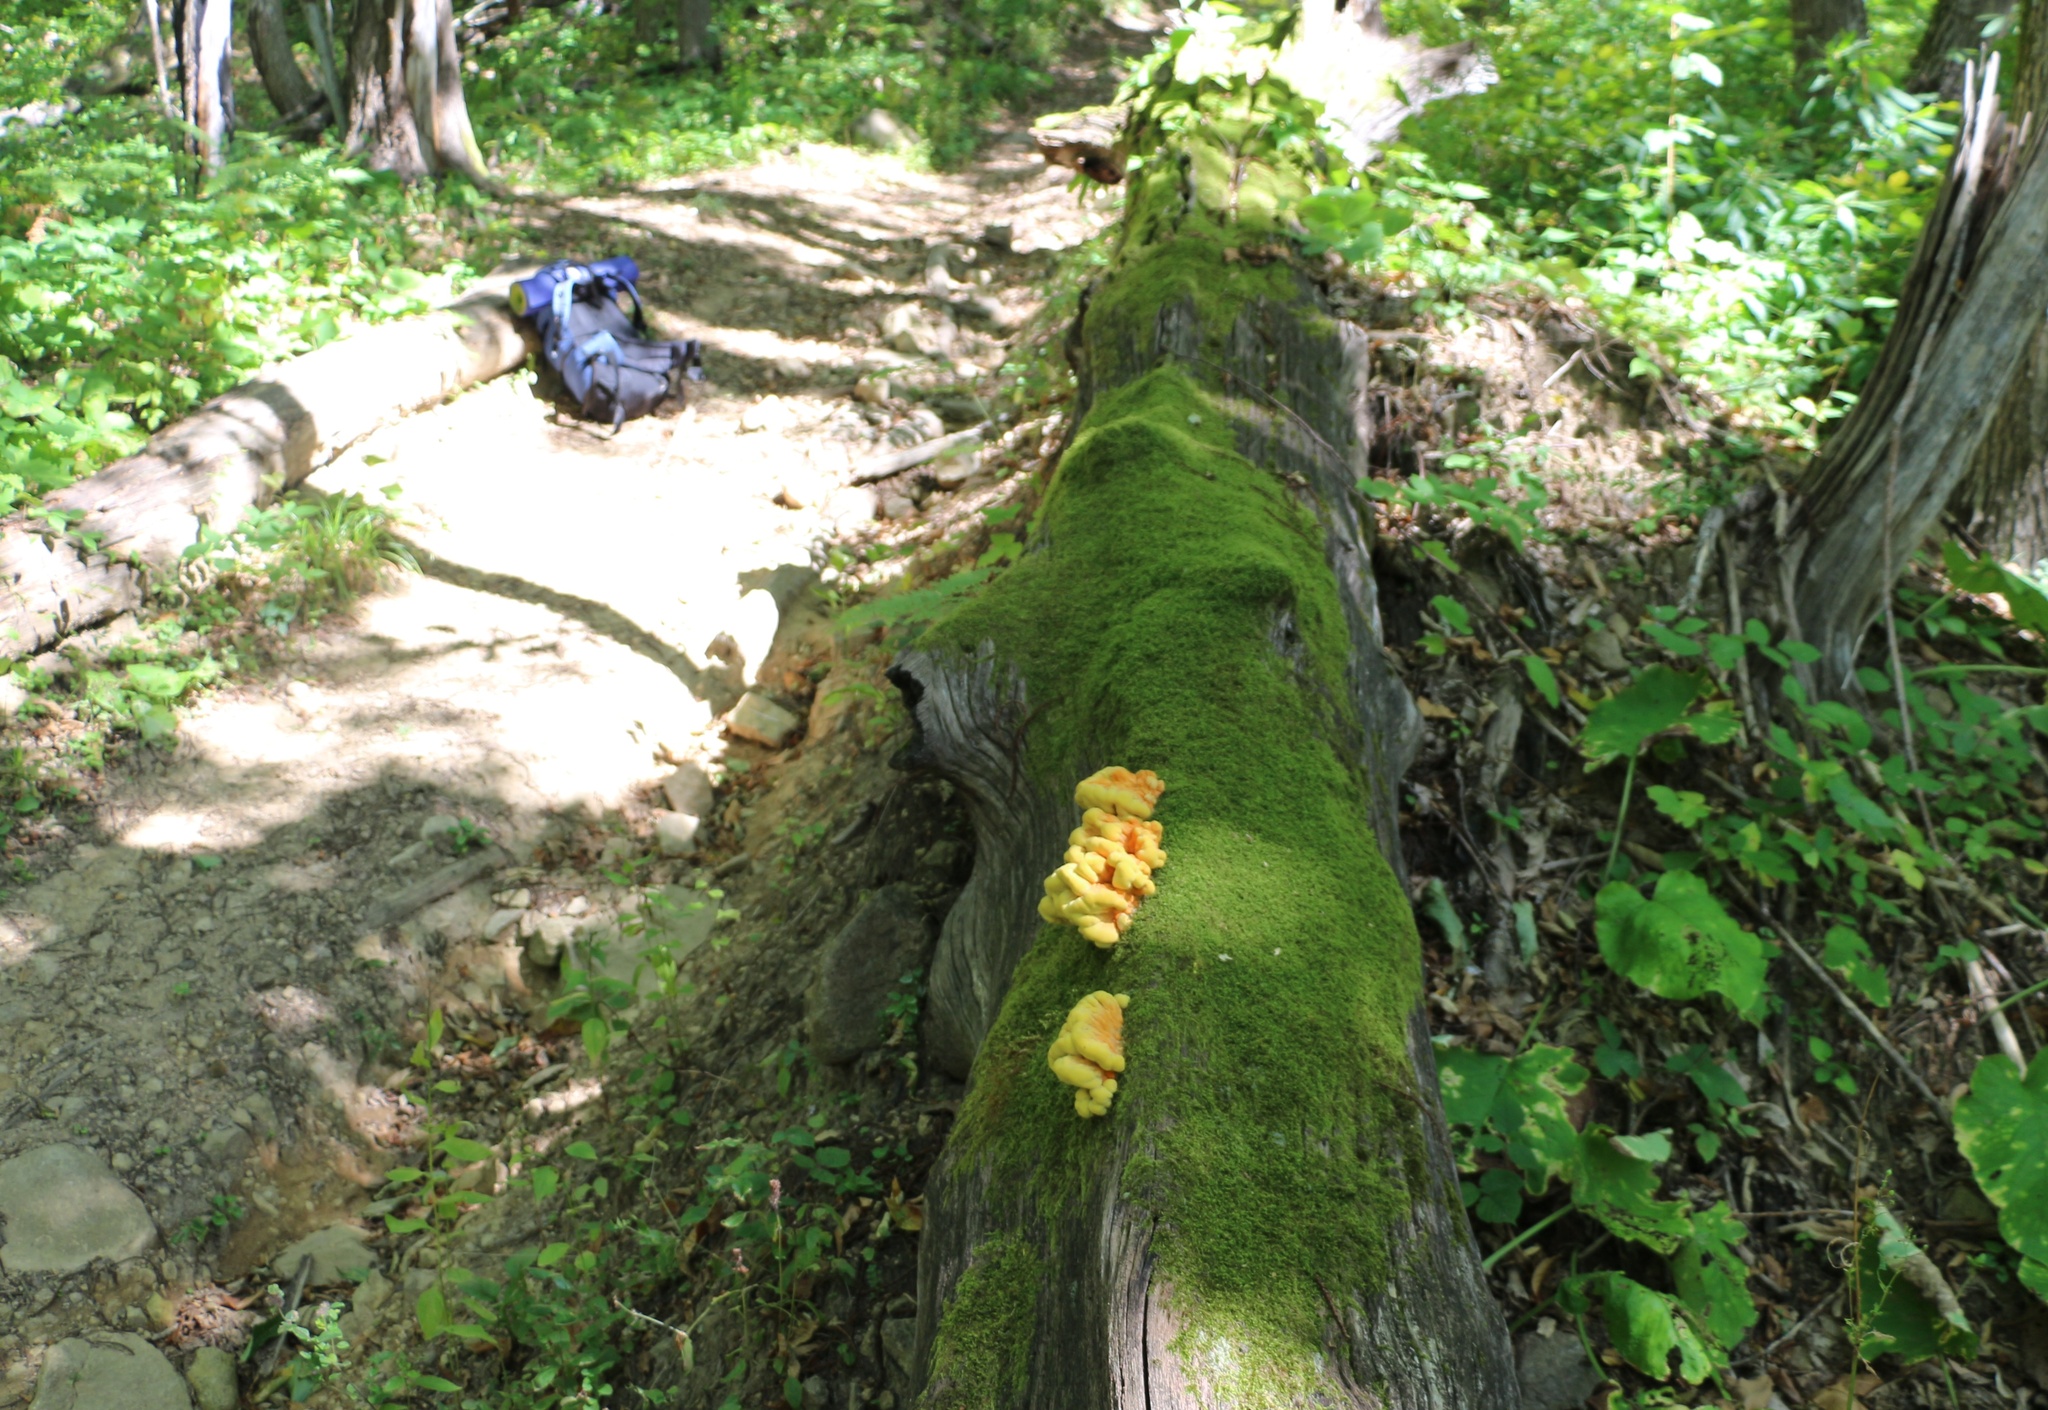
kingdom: Fungi
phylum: Basidiomycota
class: Agaricomycetes
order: Polyporales
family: Laetiporaceae
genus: Laetiporus
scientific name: Laetiporus sulphureus
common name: Chicken of the woods
